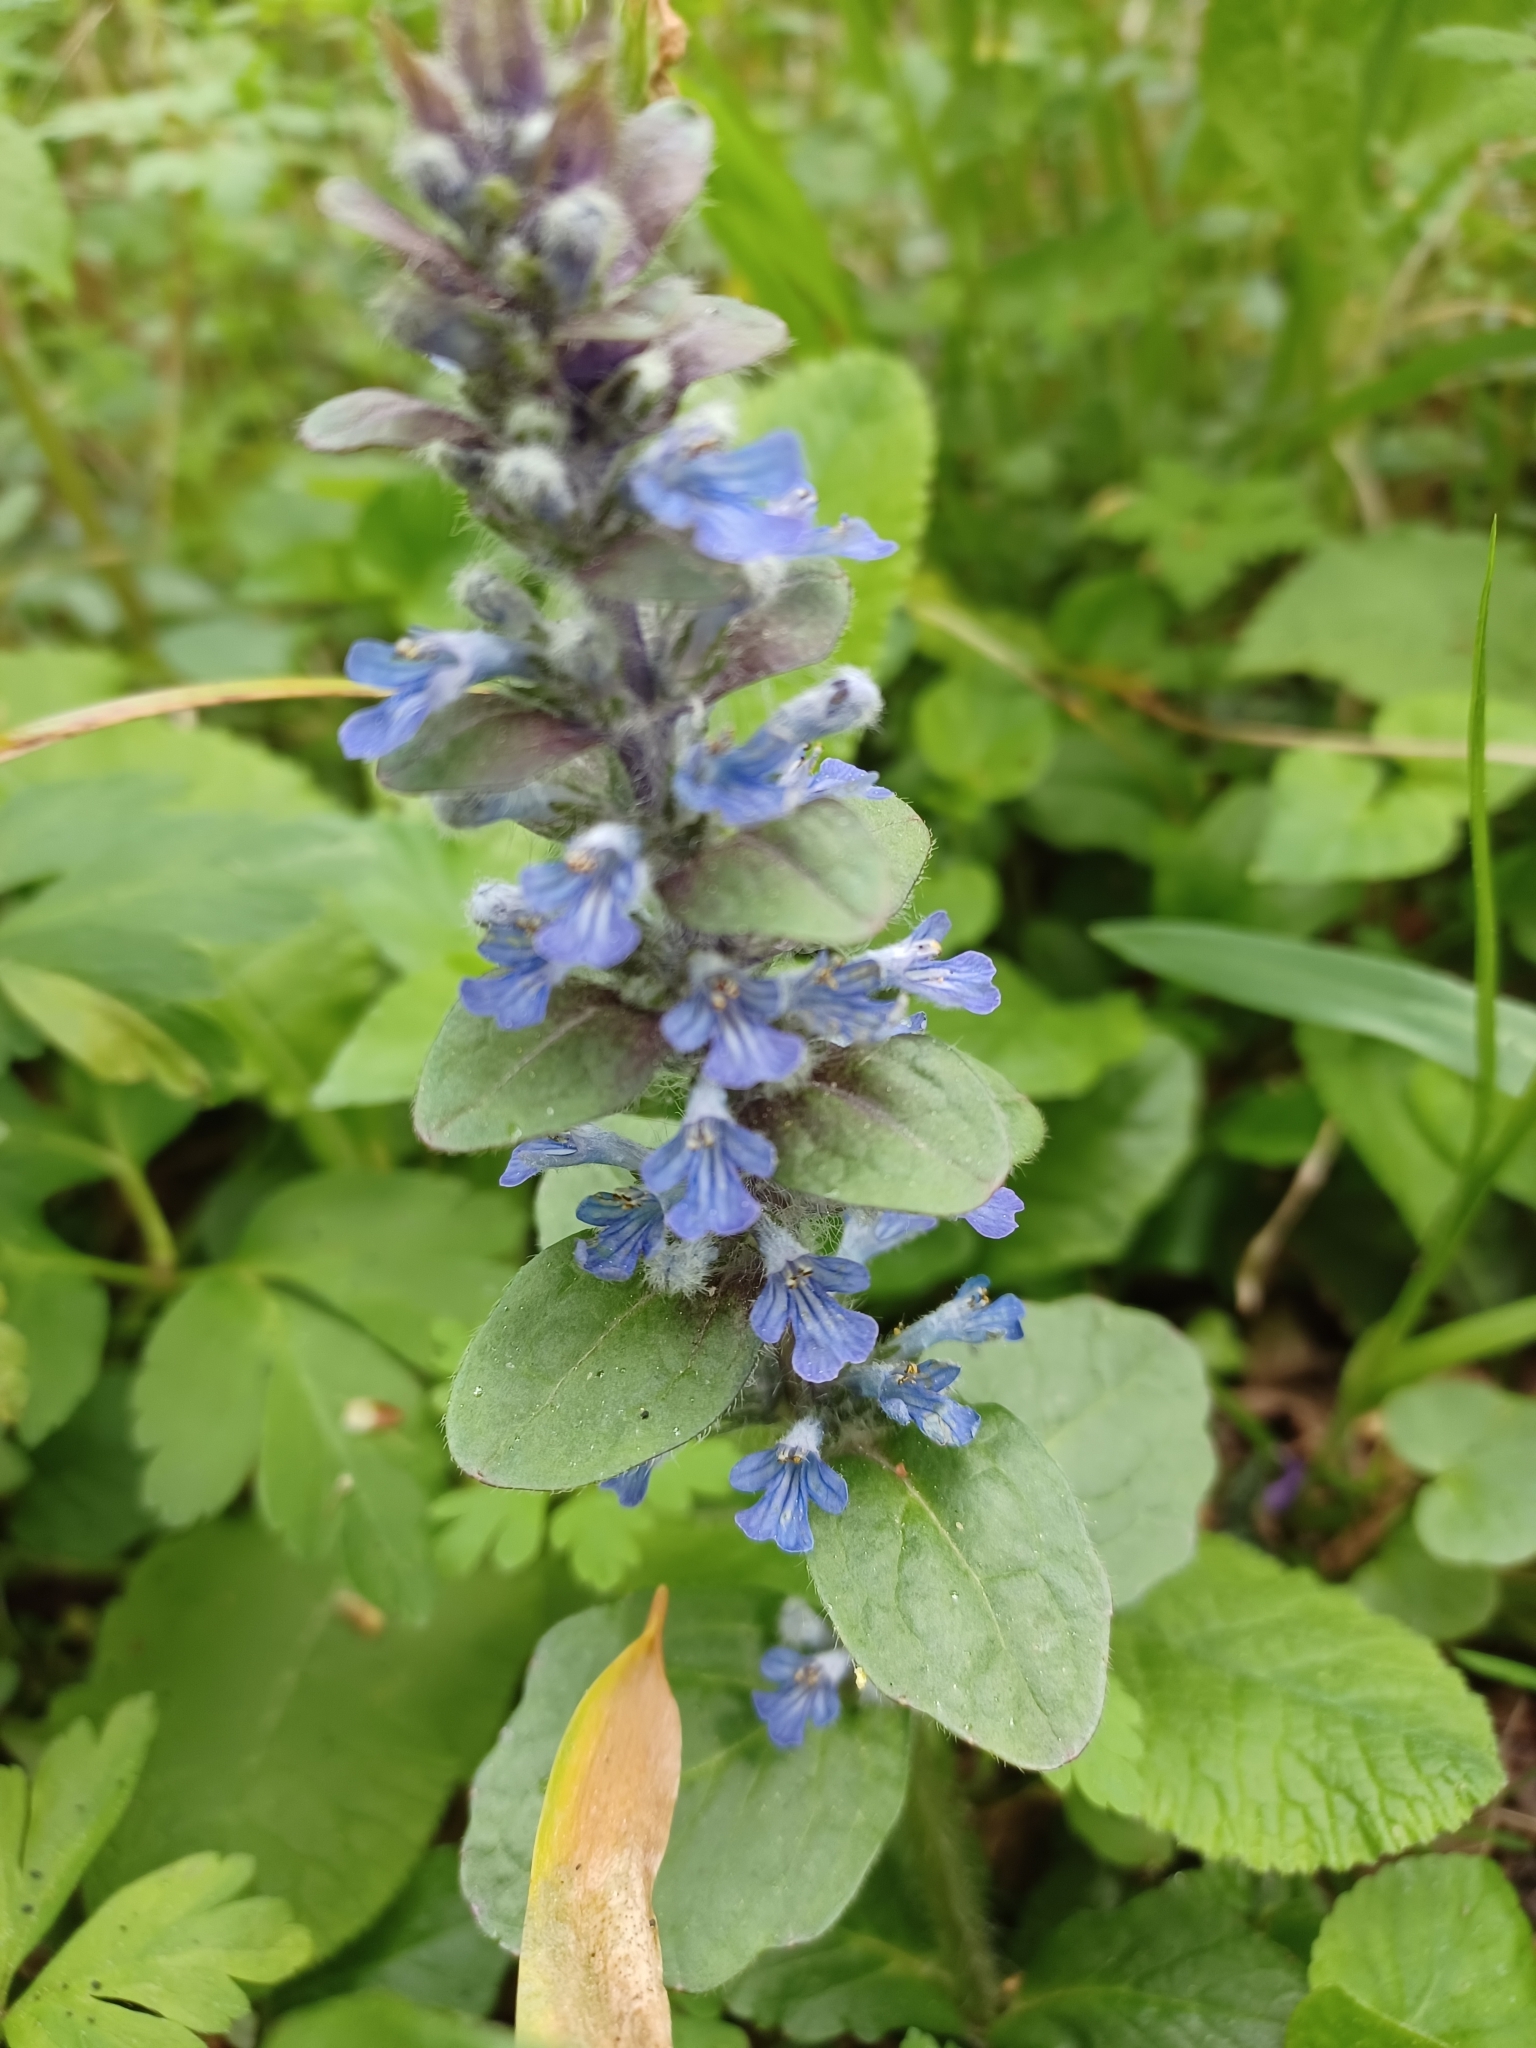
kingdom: Plantae
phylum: Tracheophyta
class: Magnoliopsida
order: Lamiales
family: Lamiaceae
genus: Ajuga
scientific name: Ajuga reptans
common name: Bugle
